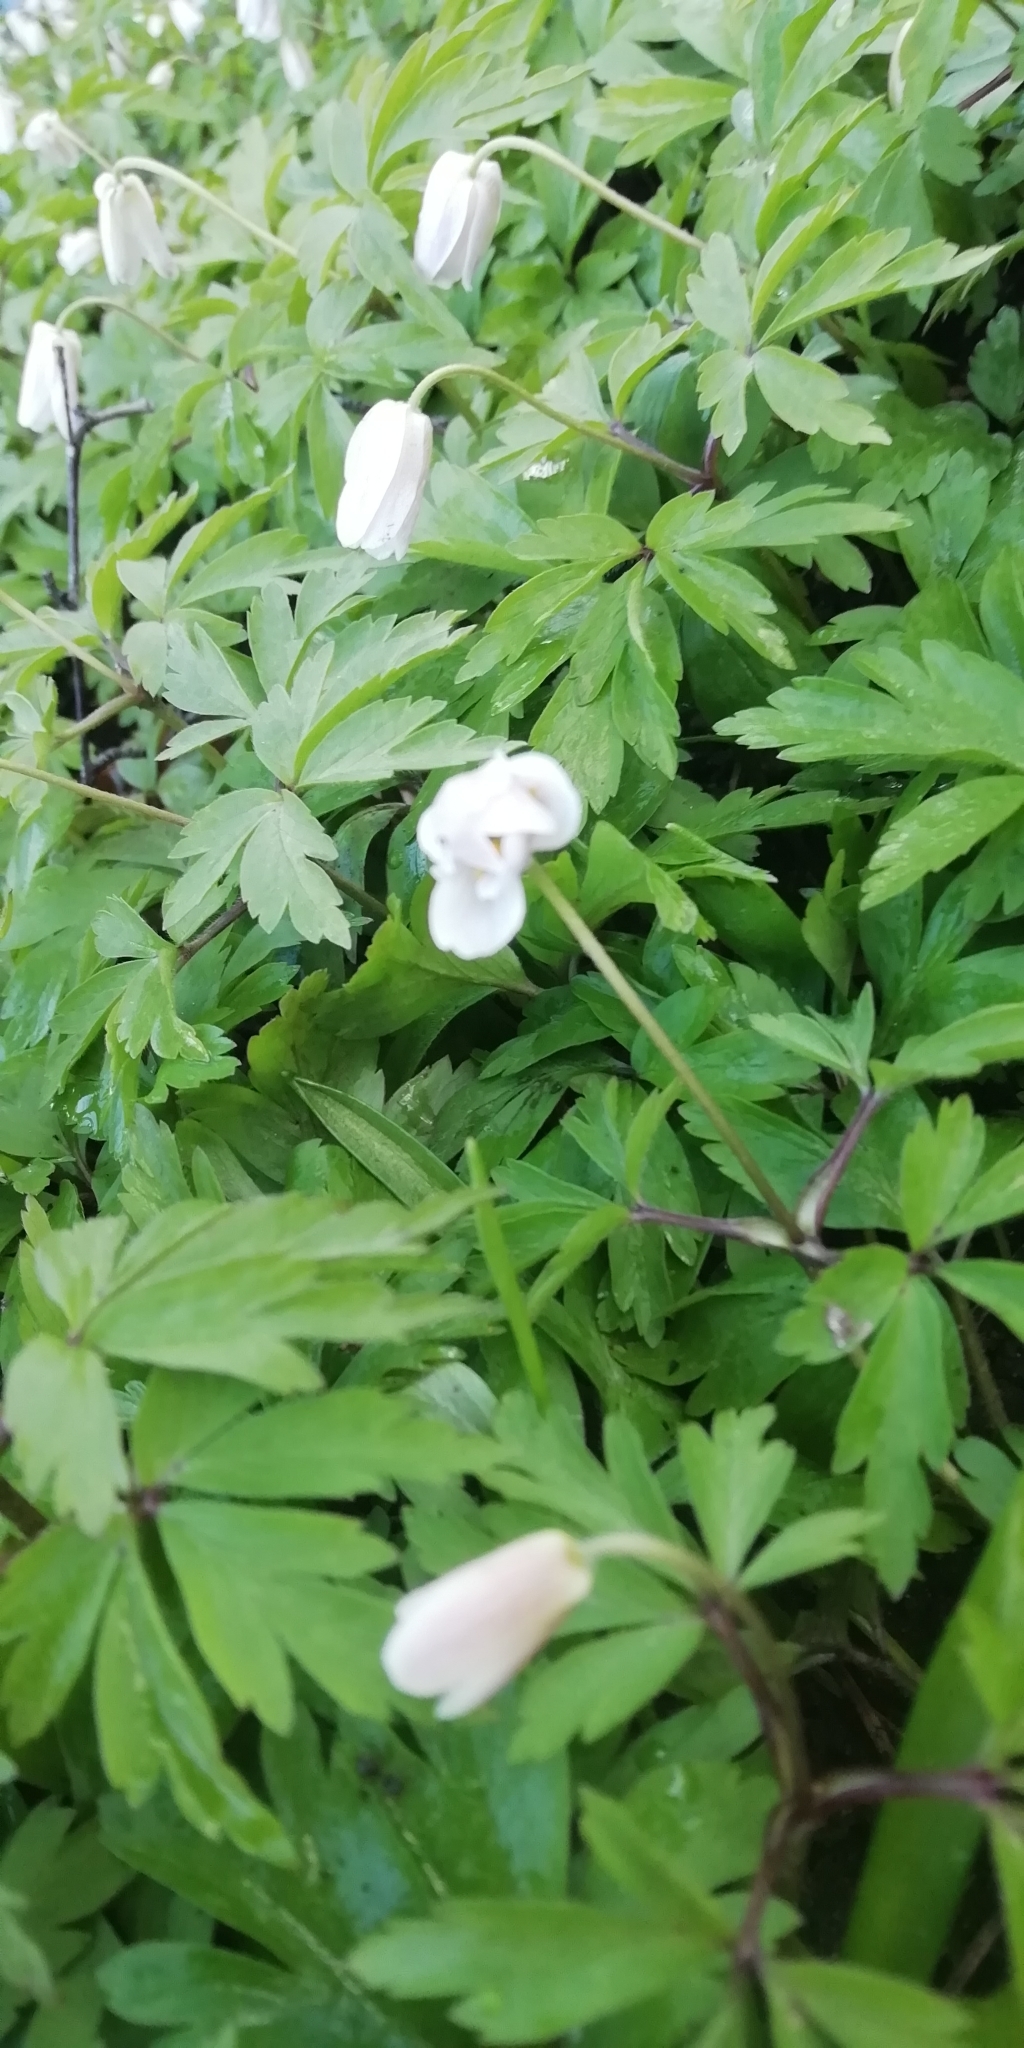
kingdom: Plantae
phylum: Tracheophyta
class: Magnoliopsida
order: Ranunculales
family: Ranunculaceae
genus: Anemone
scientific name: Anemone nemorosa
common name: Wood anemone
